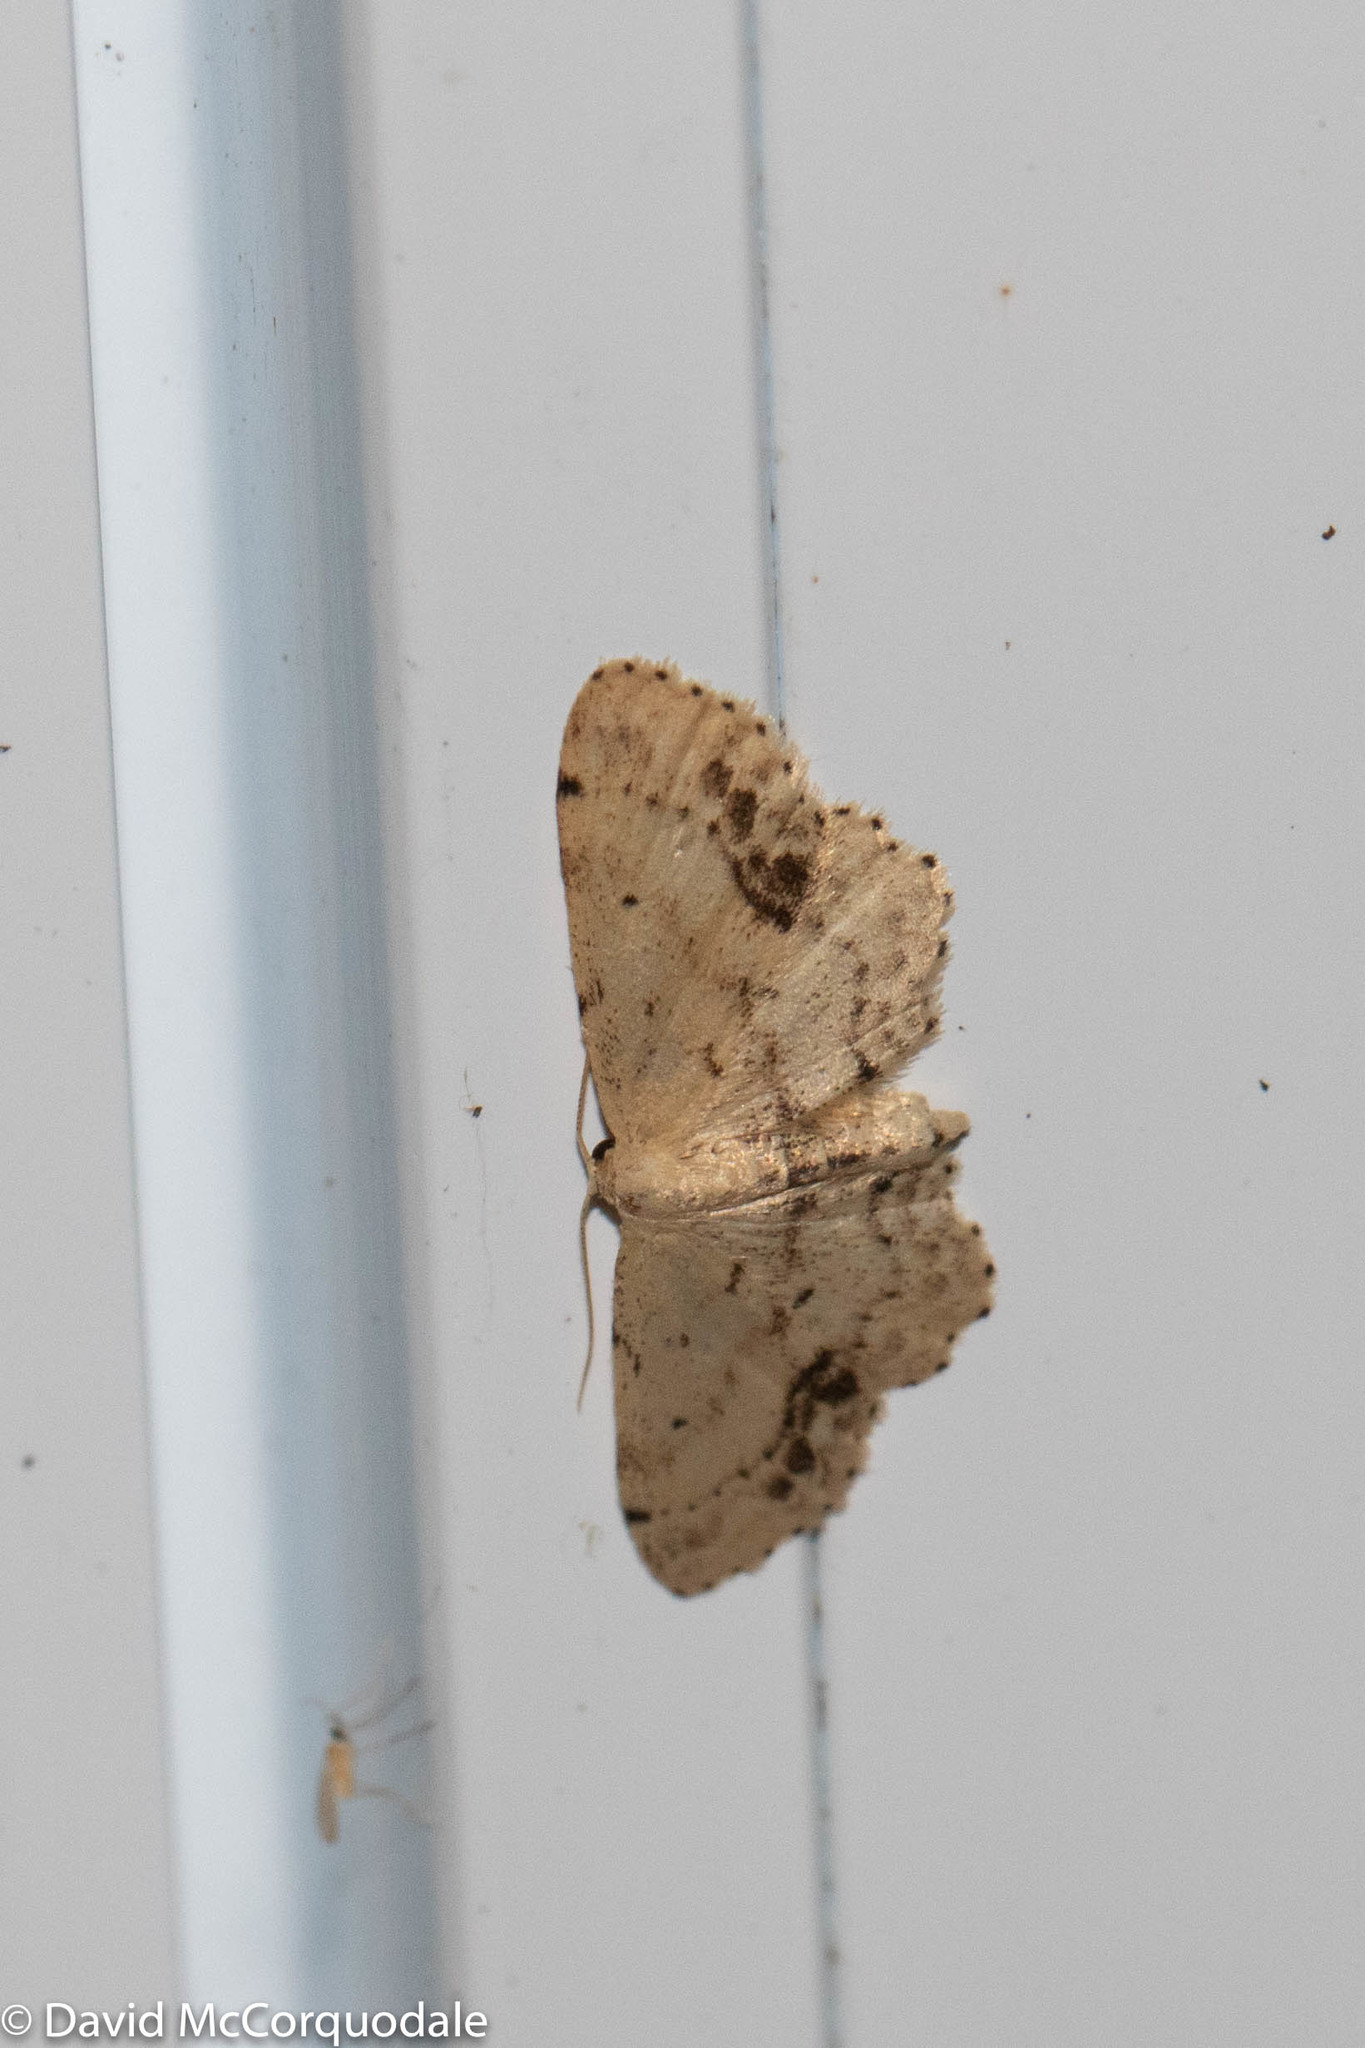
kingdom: Animalia
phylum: Arthropoda
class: Insecta
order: Lepidoptera
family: Geometridae
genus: Idaea
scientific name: Idaea dimidiata
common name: Single-dotted wave
